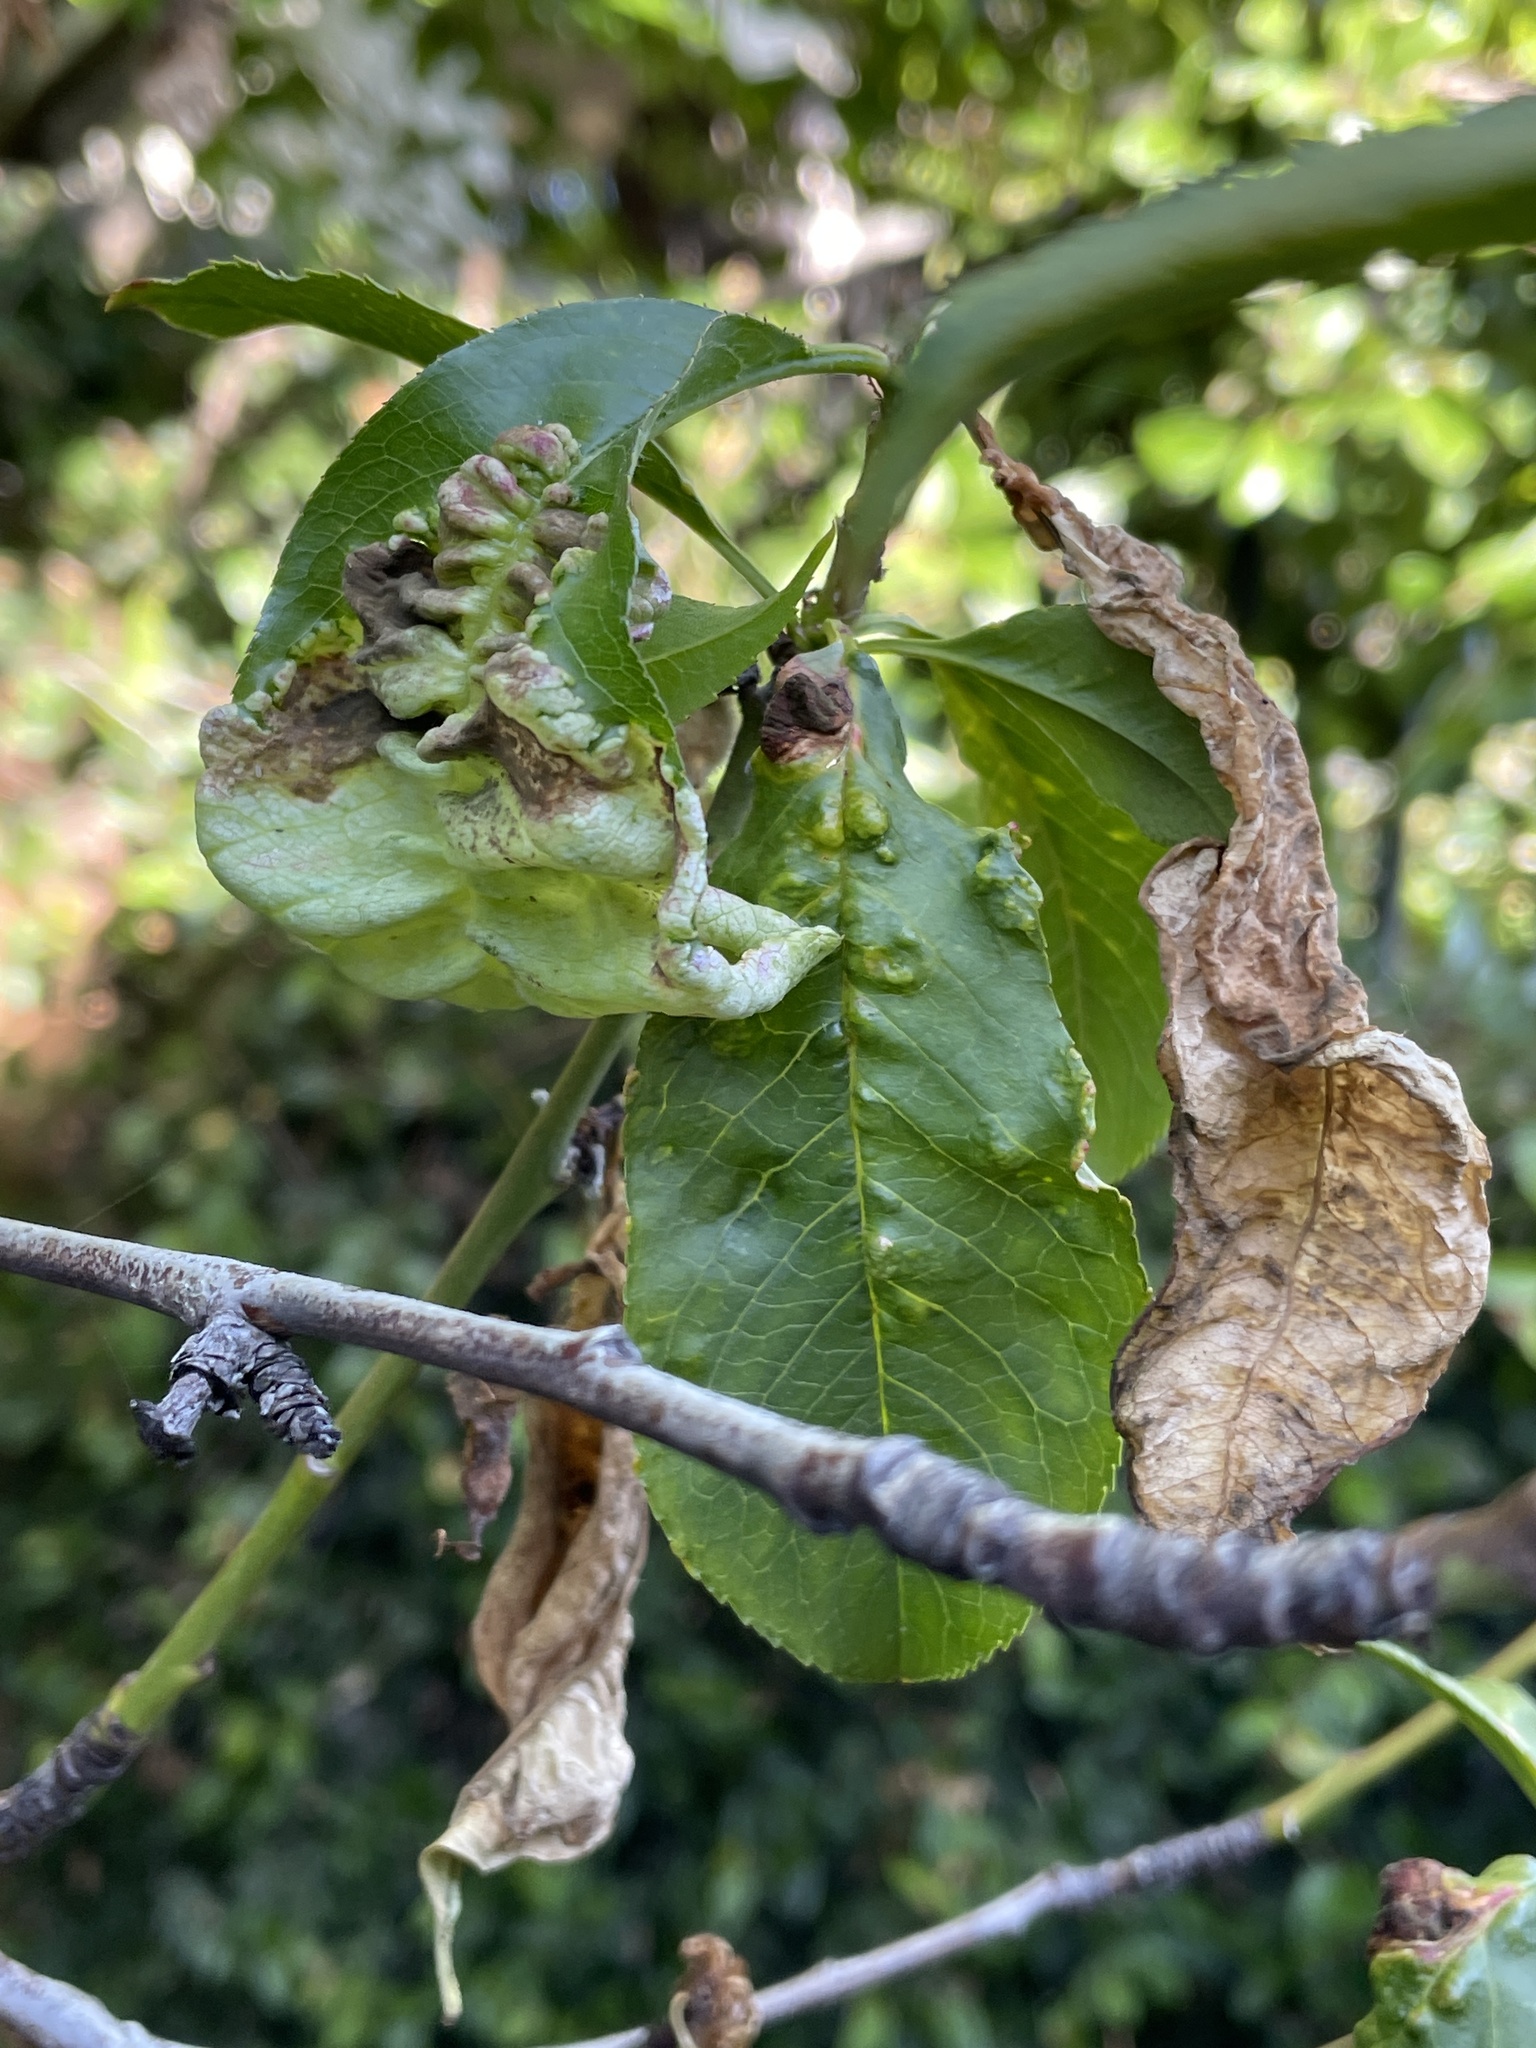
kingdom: Fungi
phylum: Ascomycota
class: Taphrinomycetes
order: Taphrinales
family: Taphrinaceae
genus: Taphrina
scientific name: Taphrina deformans
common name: Peach leaf curl
